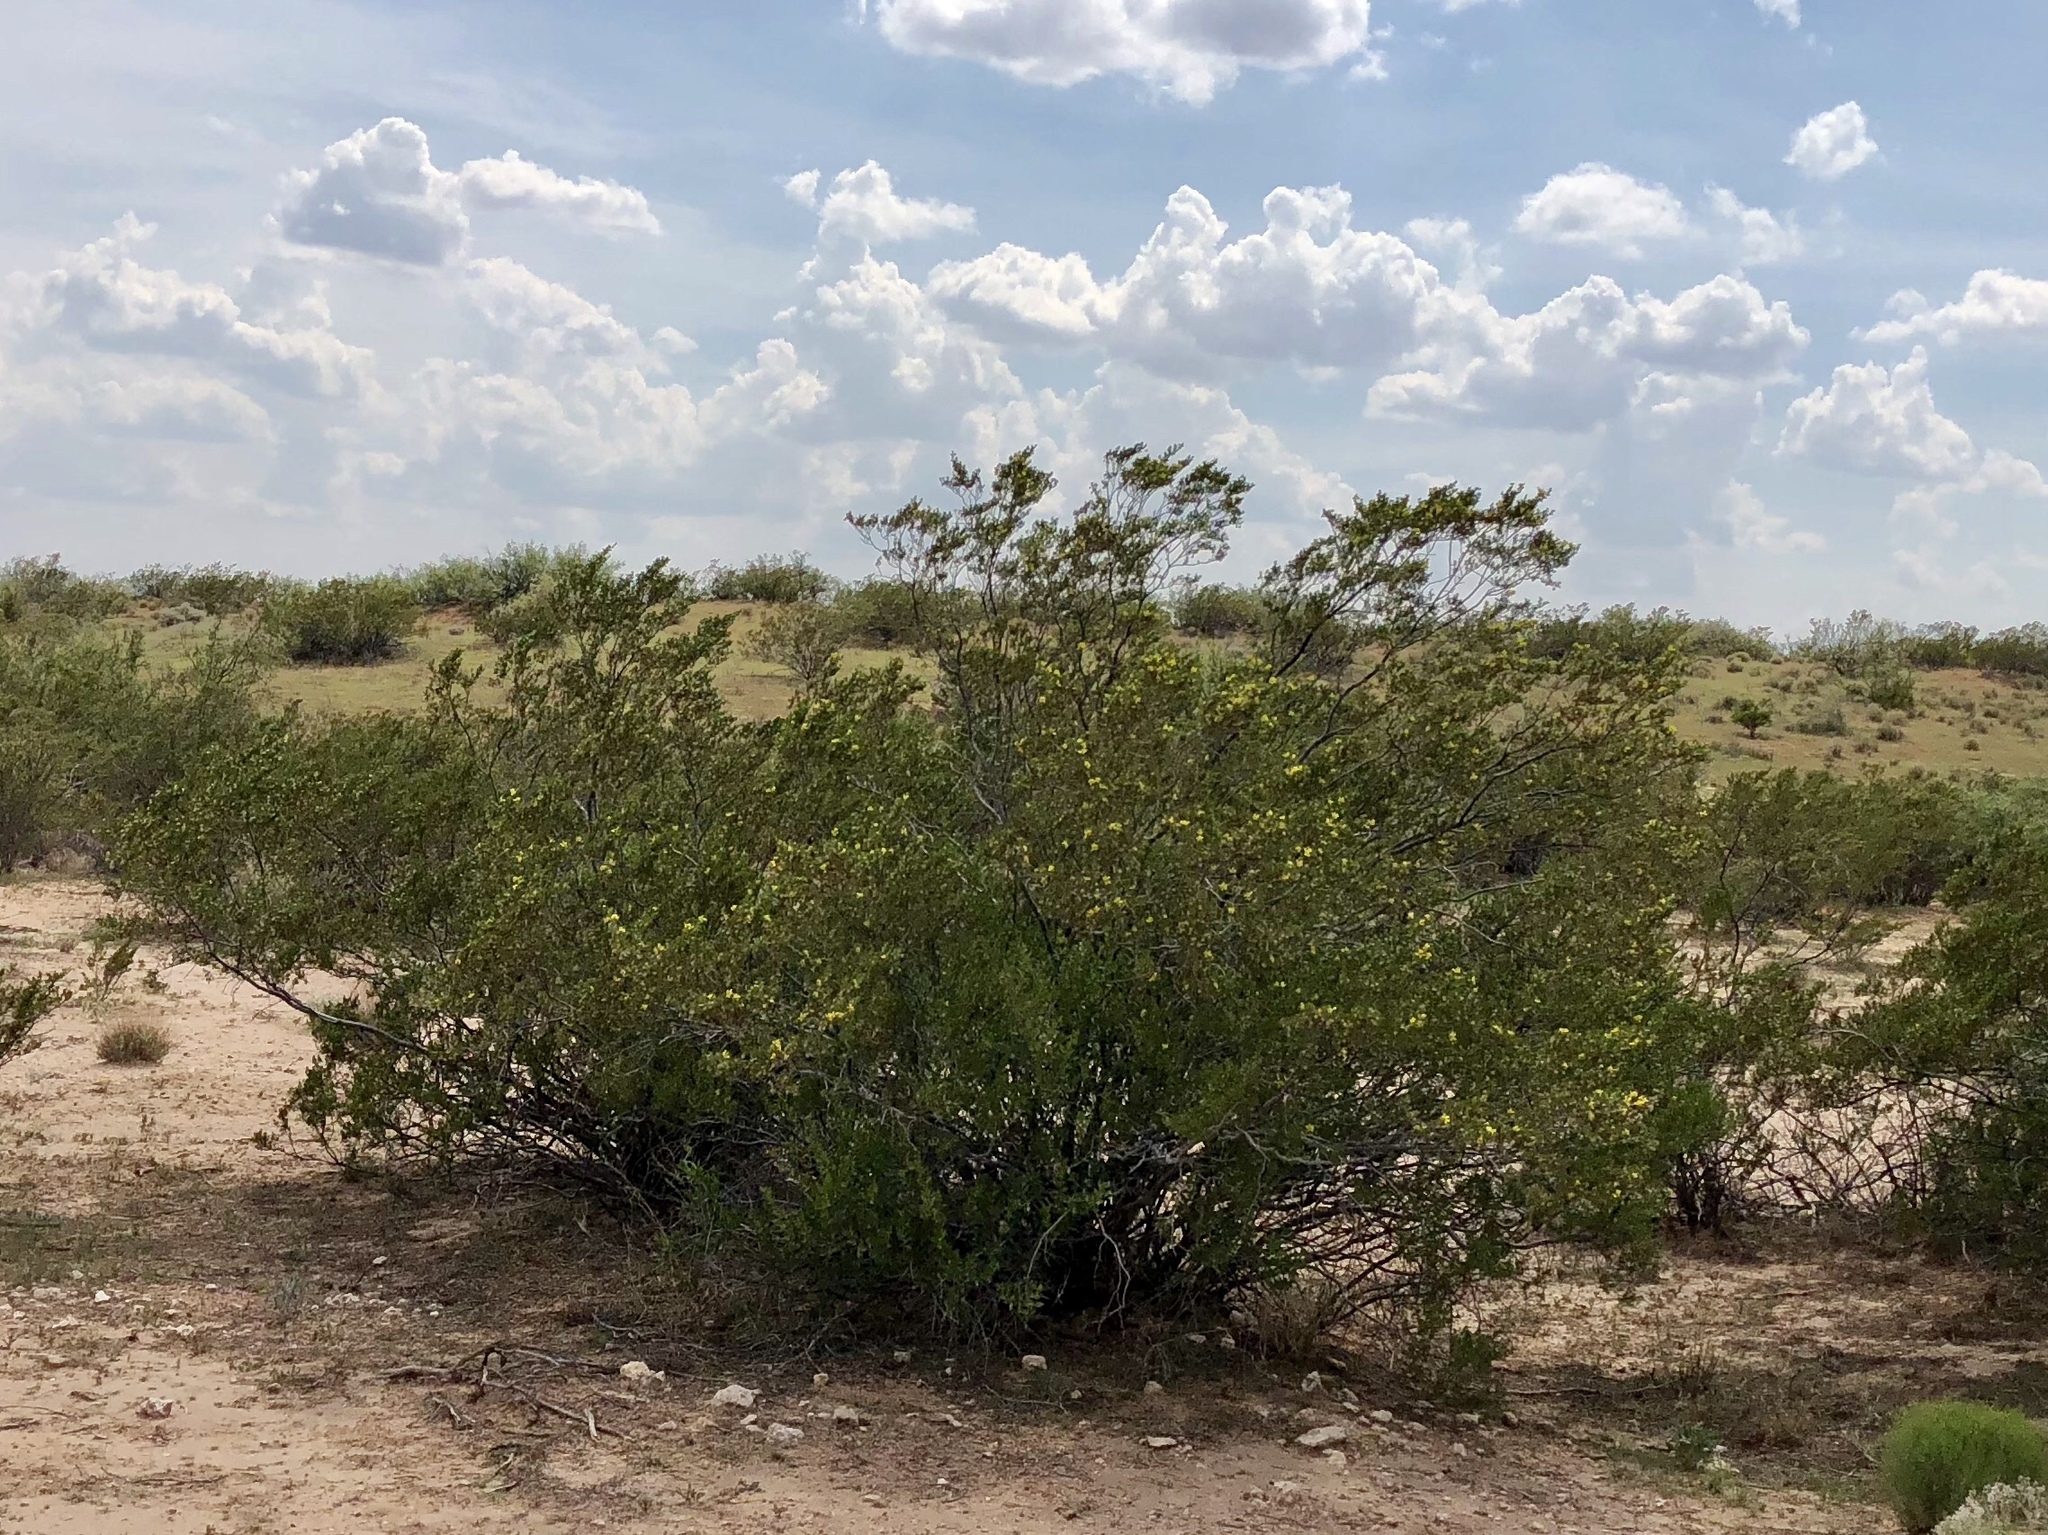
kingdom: Plantae
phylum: Tracheophyta
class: Magnoliopsida
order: Zygophyllales
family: Zygophyllaceae
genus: Larrea
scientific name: Larrea tridentata
